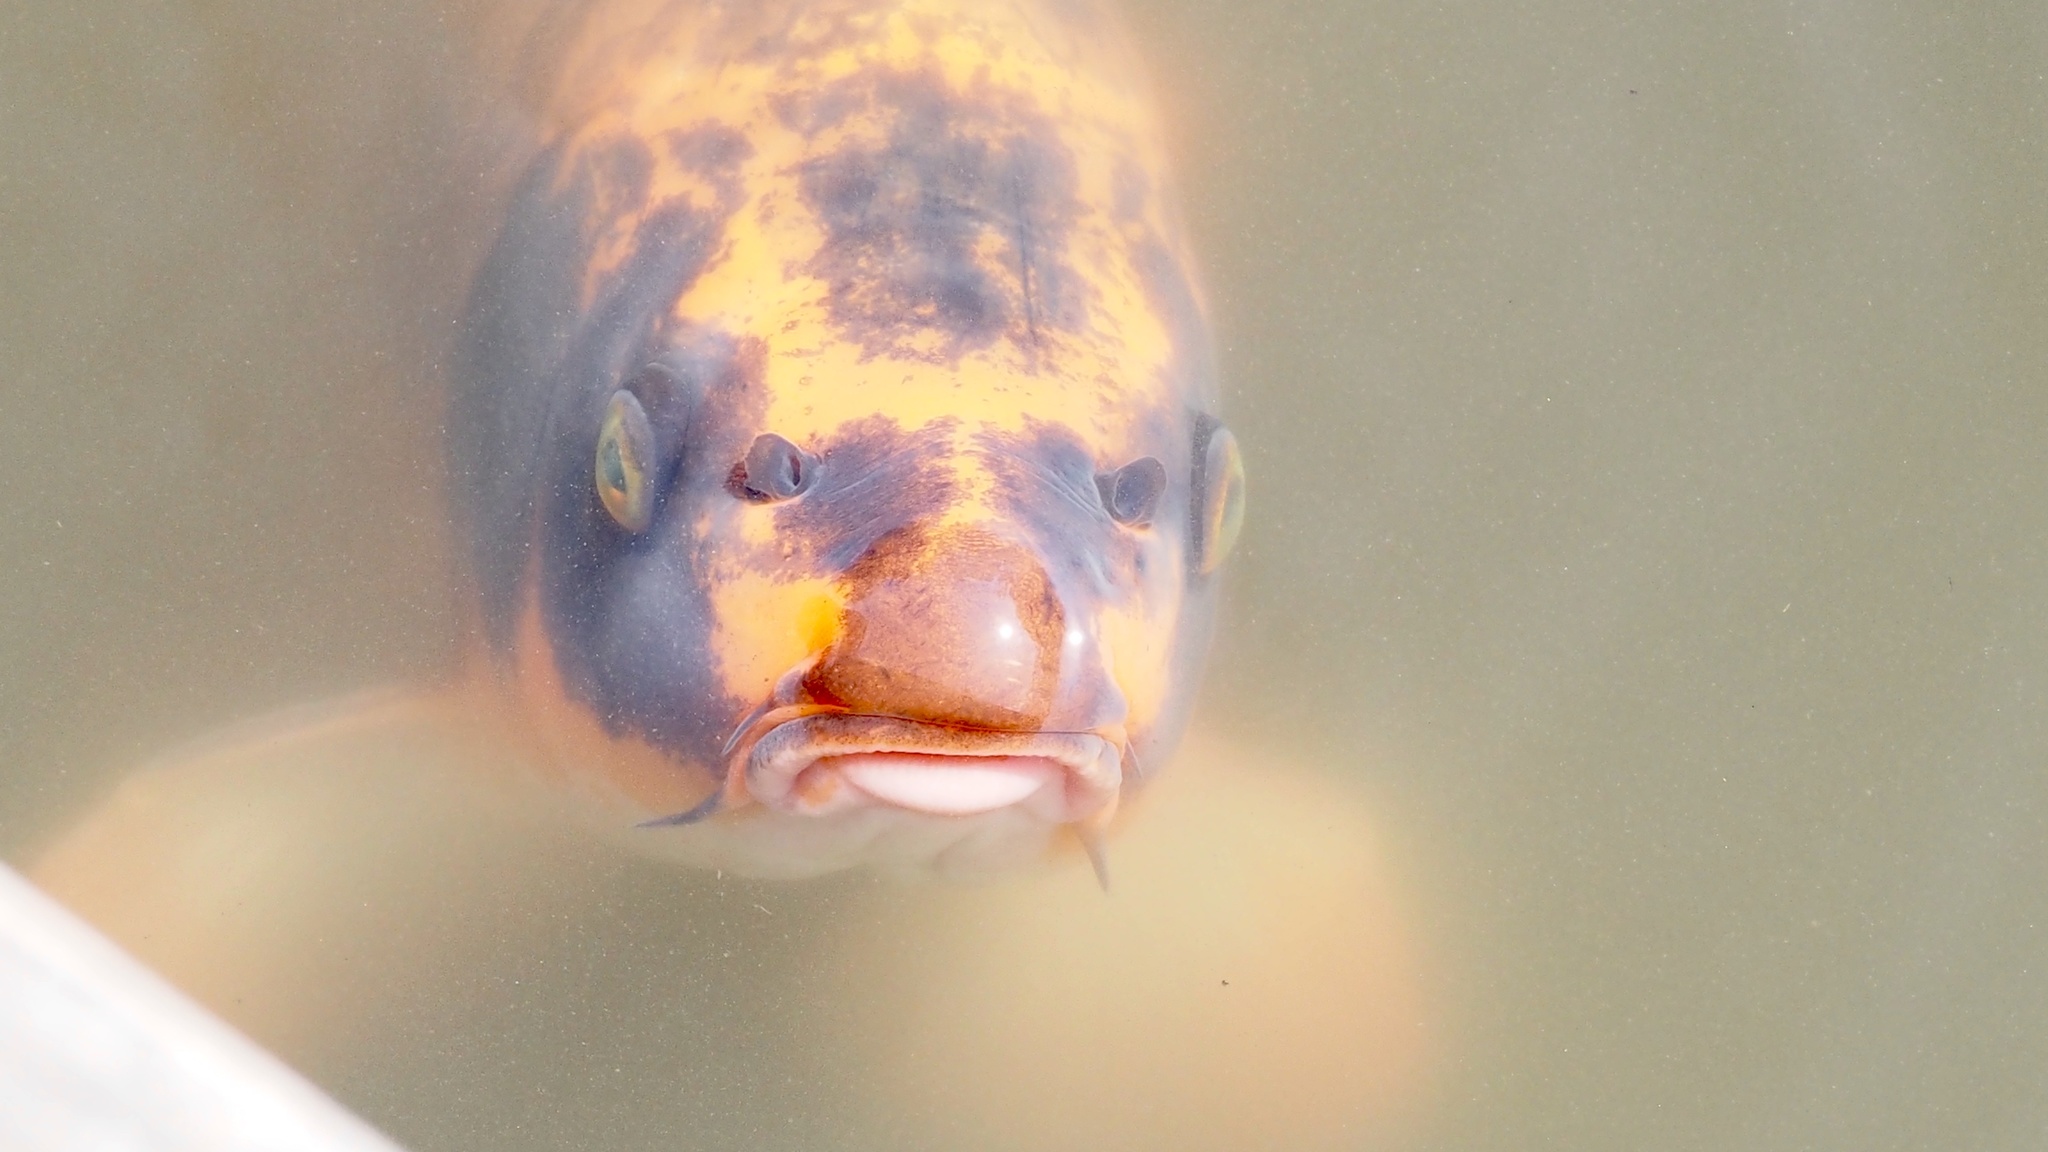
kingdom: Animalia
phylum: Chordata
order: Cypriniformes
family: Cyprinidae
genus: Cyprinus
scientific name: Cyprinus rubrofuscus
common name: Koi
